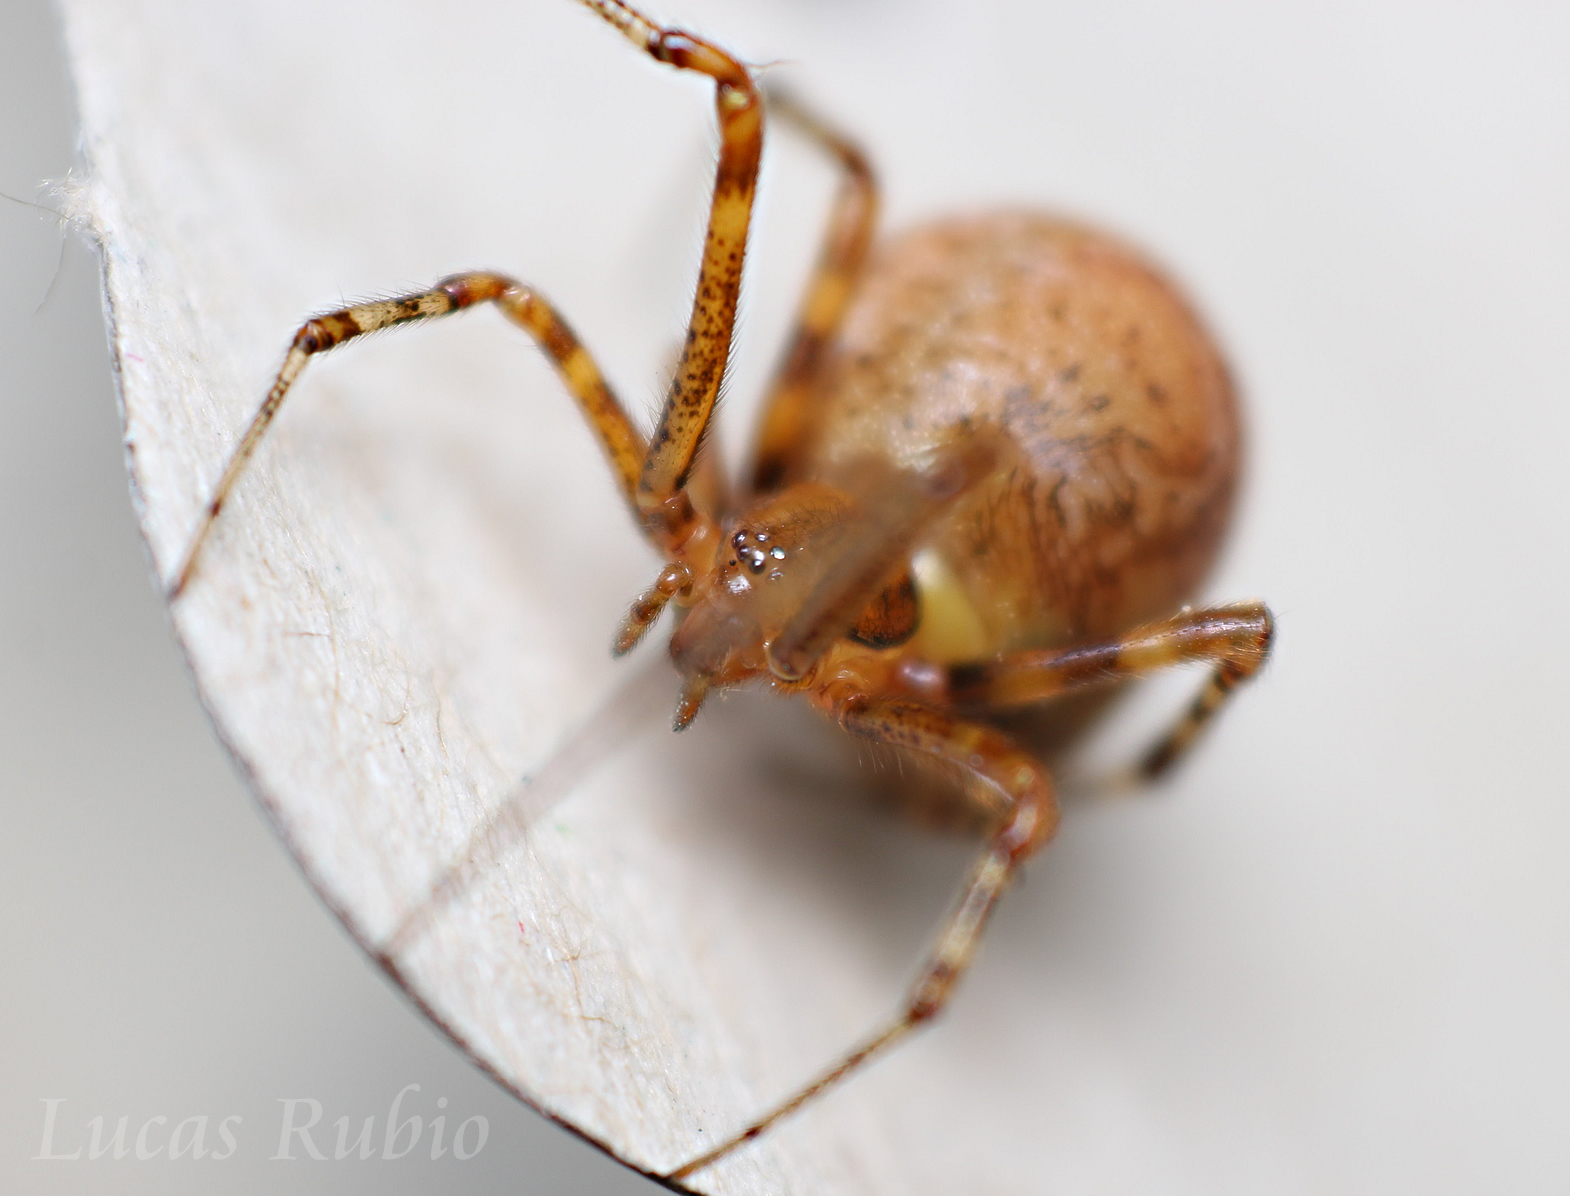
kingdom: Animalia
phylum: Arthropoda
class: Arachnida
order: Araneae
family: Theridiidae
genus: Tidarren
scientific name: Tidarren sisyphoides
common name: Cobweb spiders
